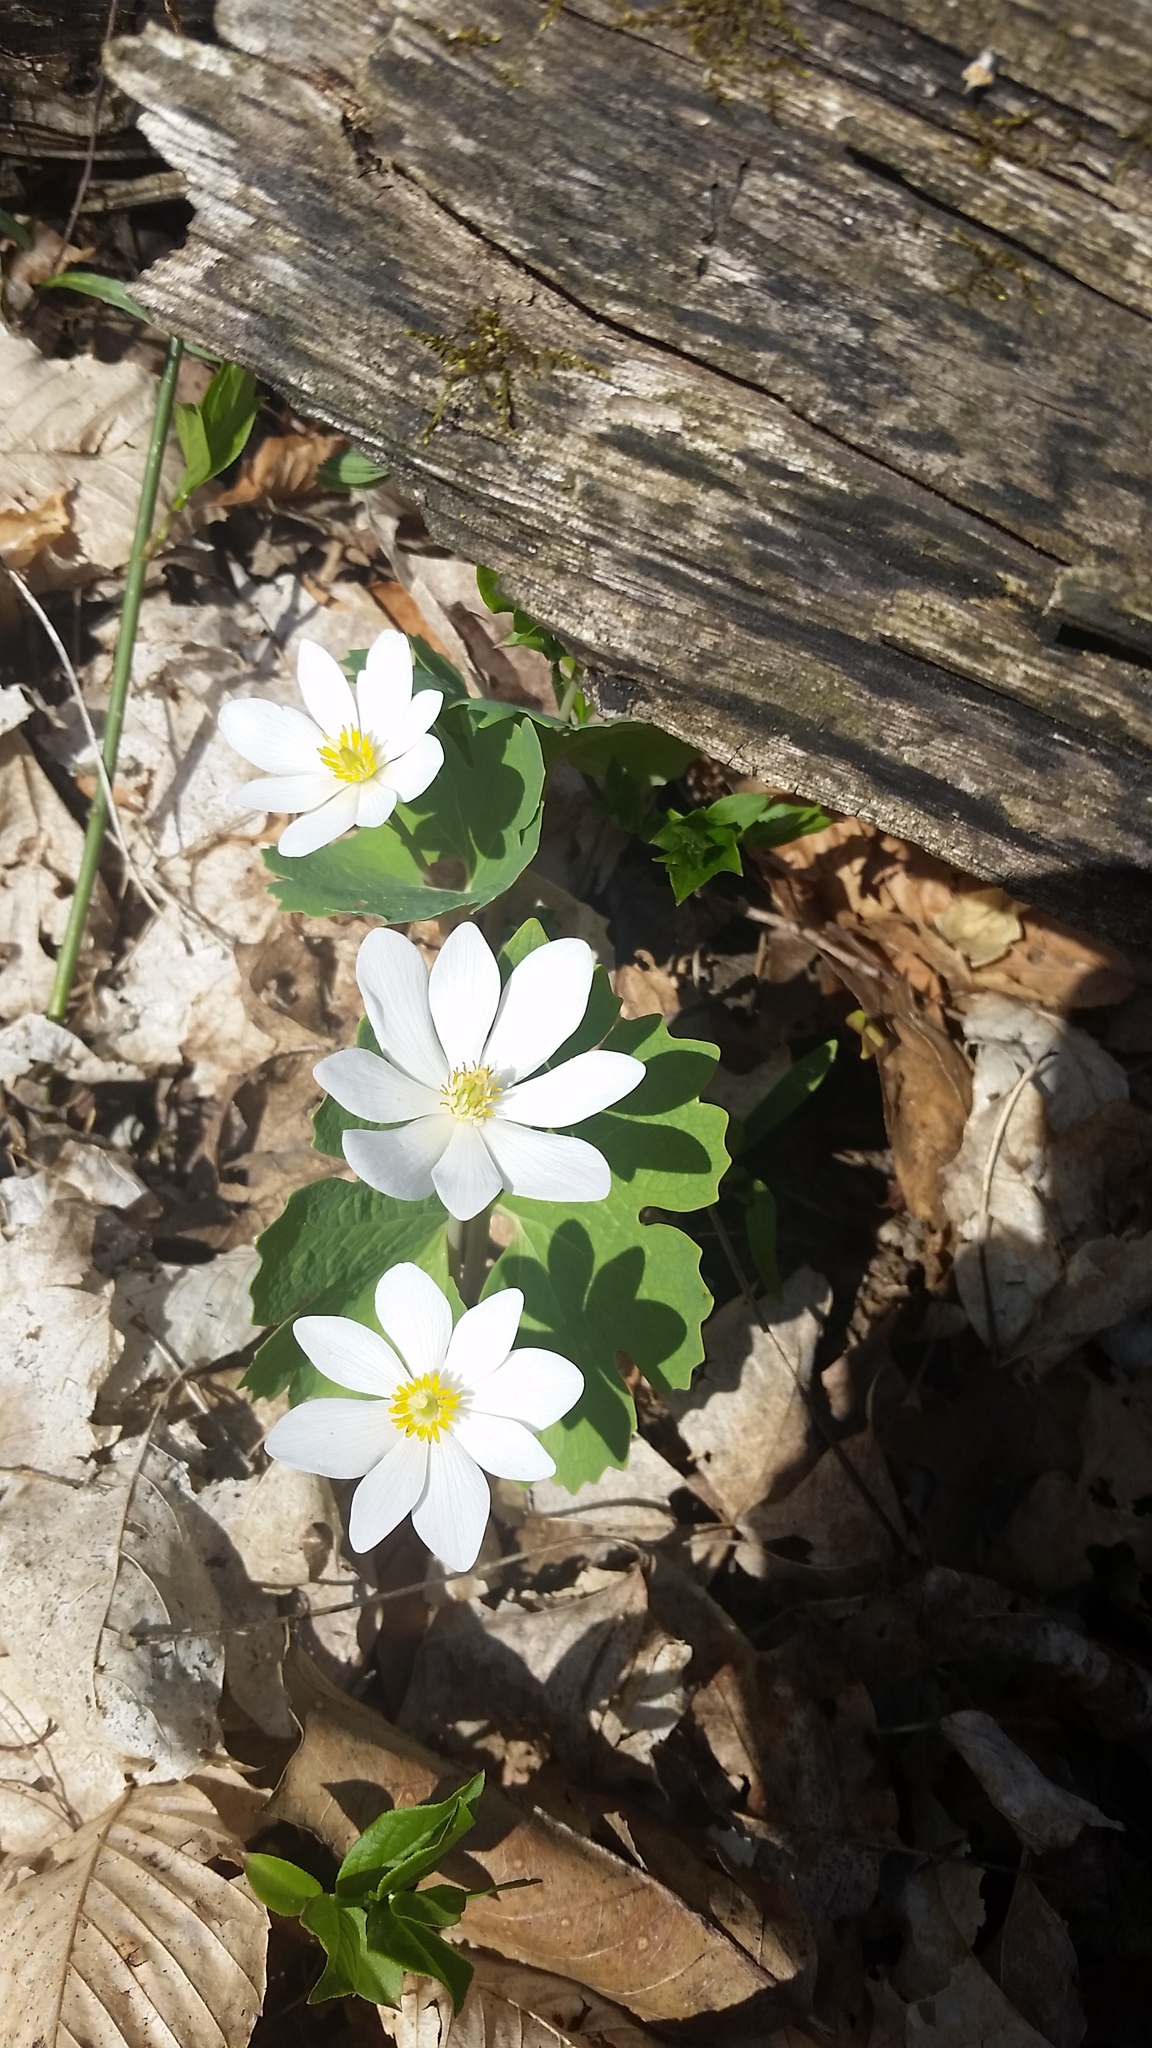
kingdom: Plantae
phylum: Tracheophyta
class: Magnoliopsida
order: Ranunculales
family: Papaveraceae
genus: Sanguinaria
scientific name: Sanguinaria canadensis
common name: Bloodroot
